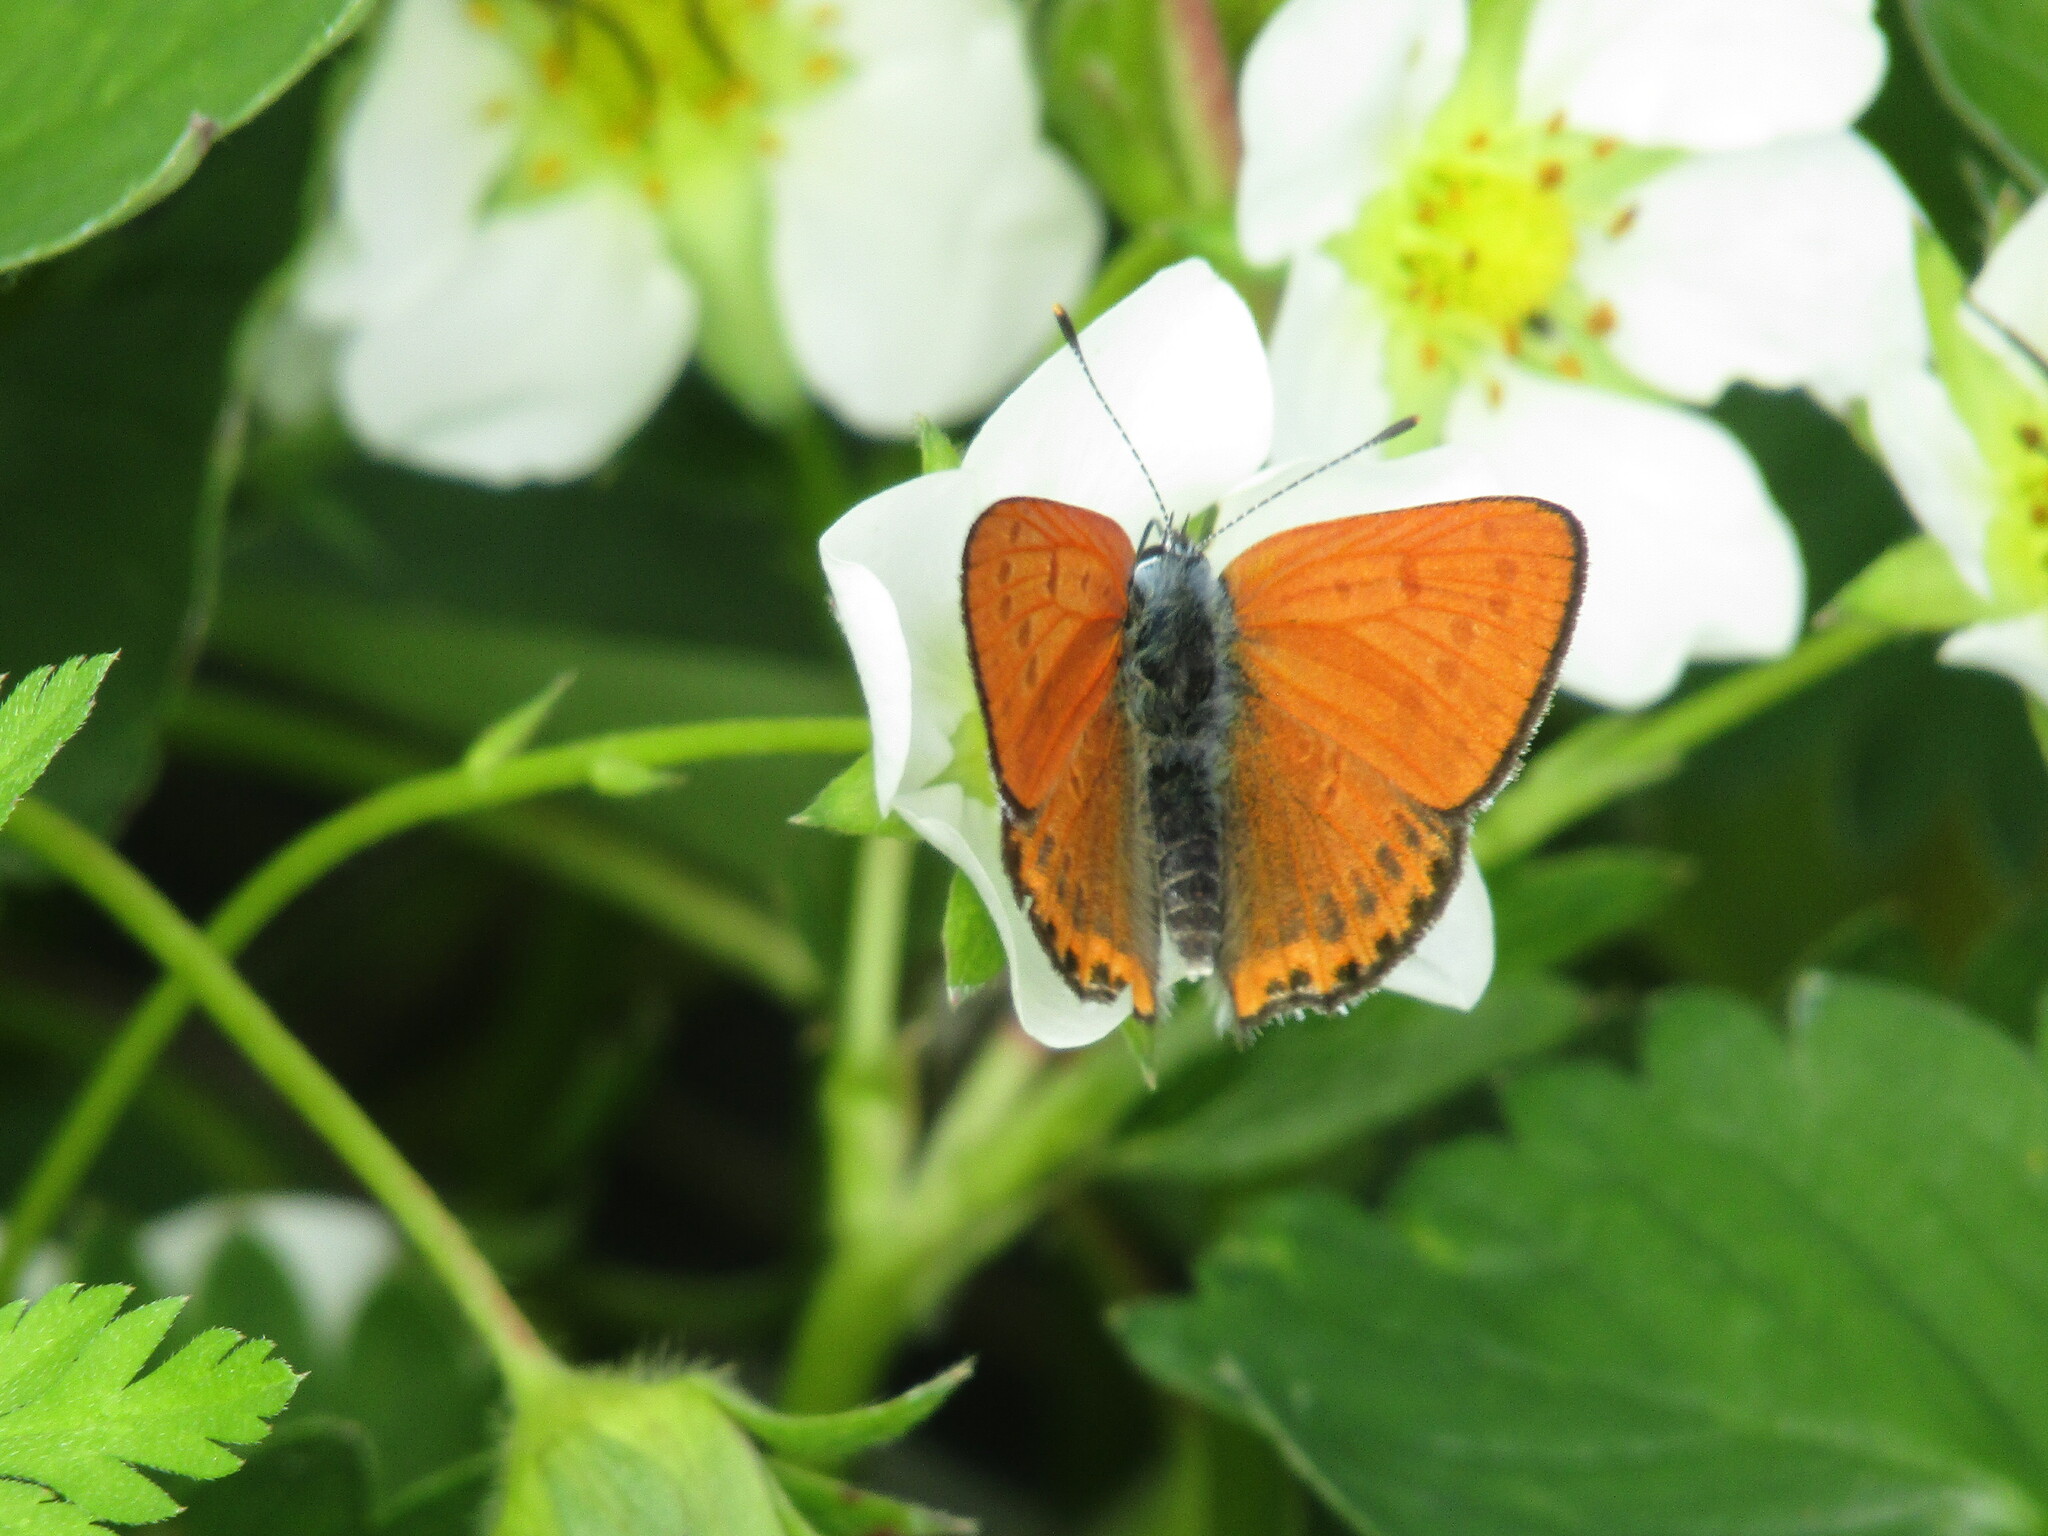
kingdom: Animalia
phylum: Arthropoda
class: Insecta
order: Lepidoptera
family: Lycaenidae
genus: Thersamonia
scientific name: Thersamonia thersamon
